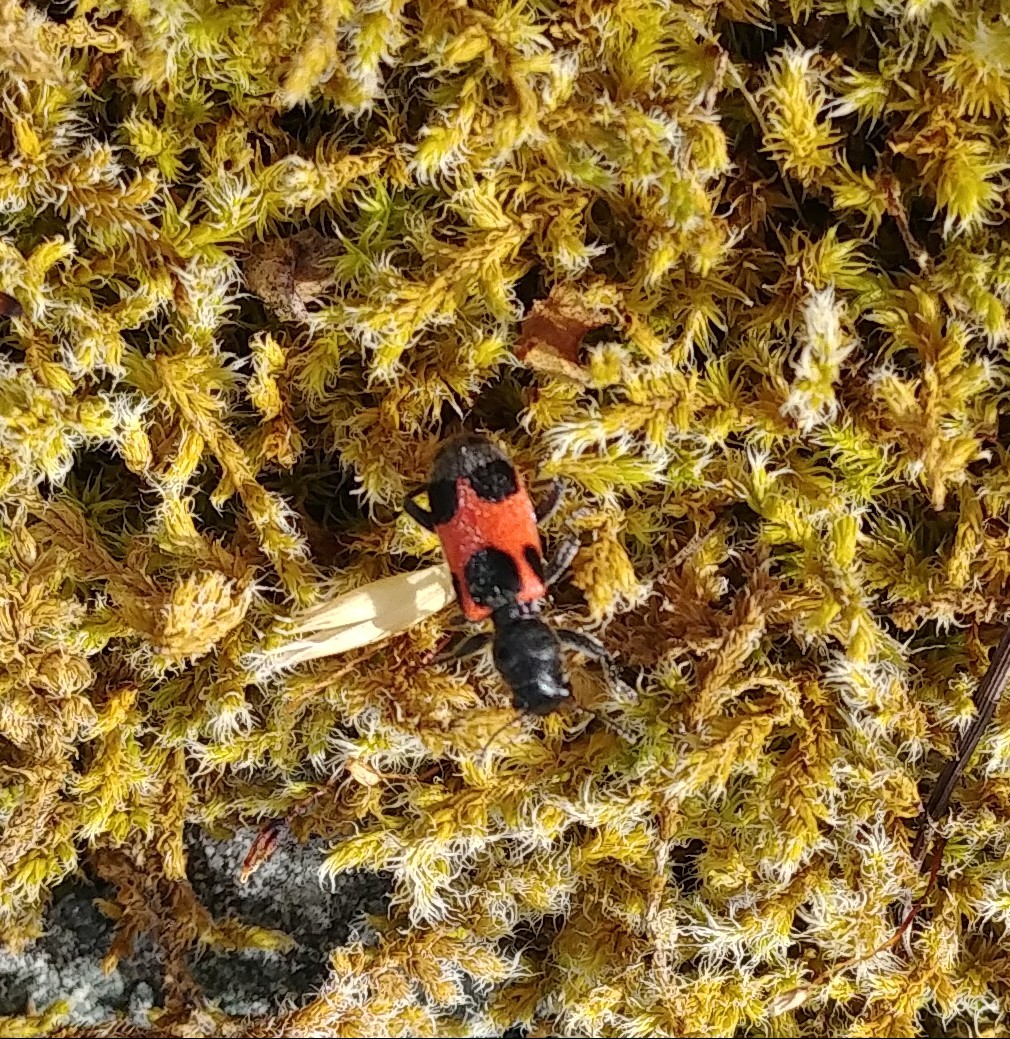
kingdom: Animalia
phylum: Arthropoda
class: Insecta
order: Coleoptera
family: Cleridae
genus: Enoclerus
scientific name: Enoclerus eximius
